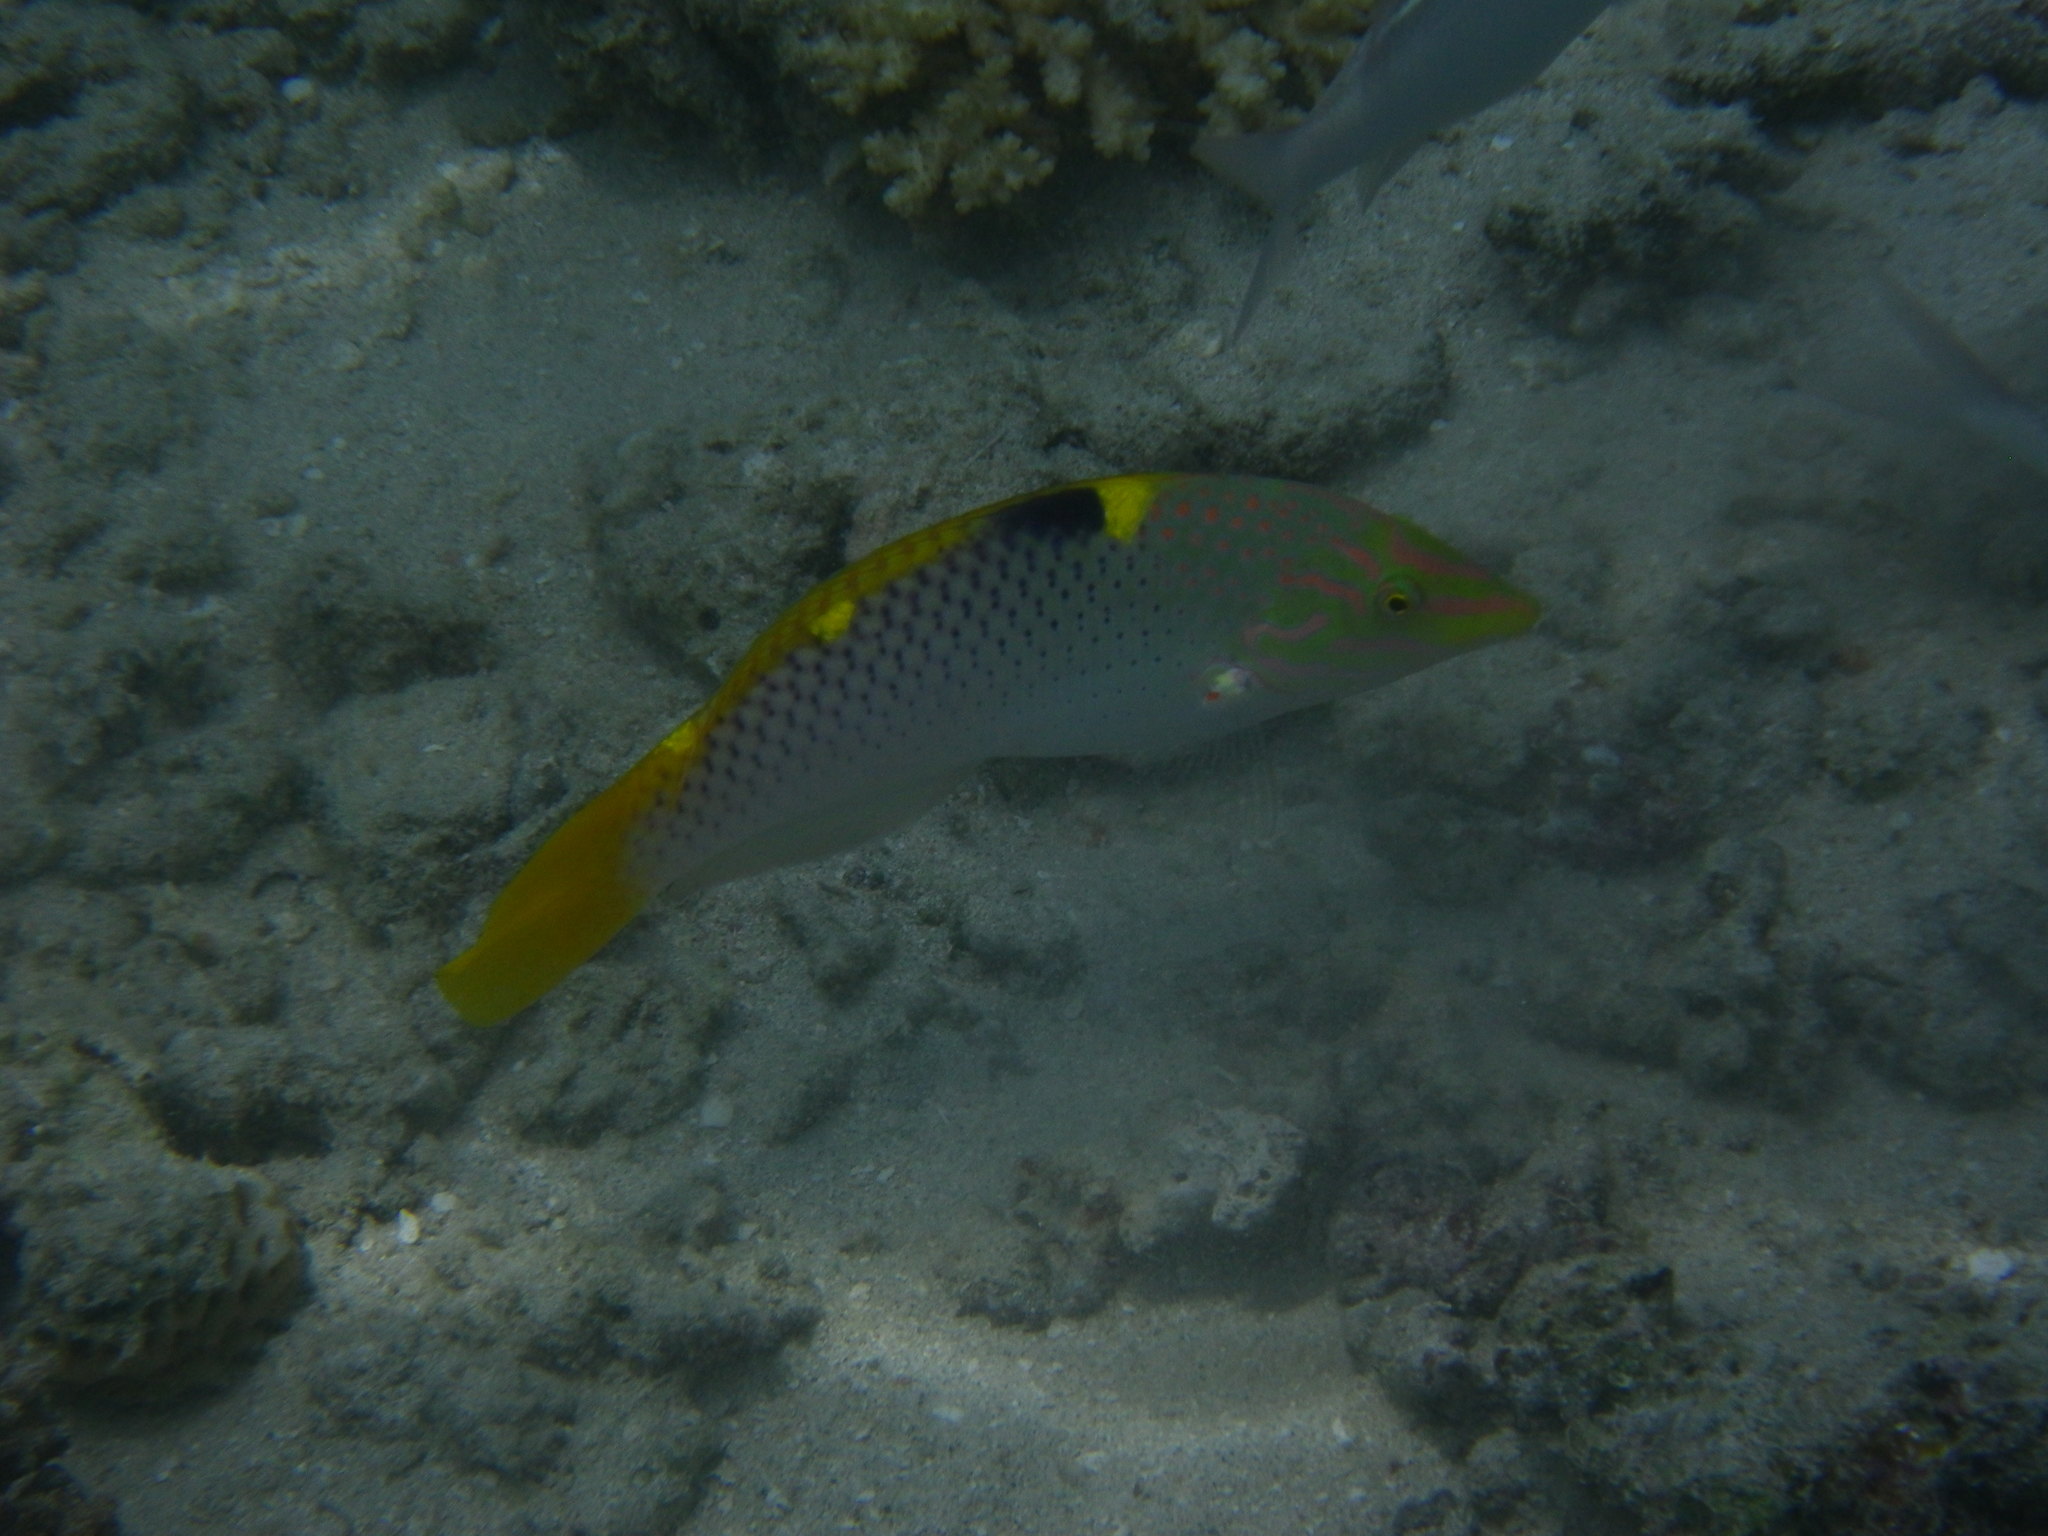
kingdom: Animalia
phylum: Chordata
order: Perciformes
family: Labridae
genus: Halichoeres
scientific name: Halichoeres hortulanus
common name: Checkerboard wrasse
